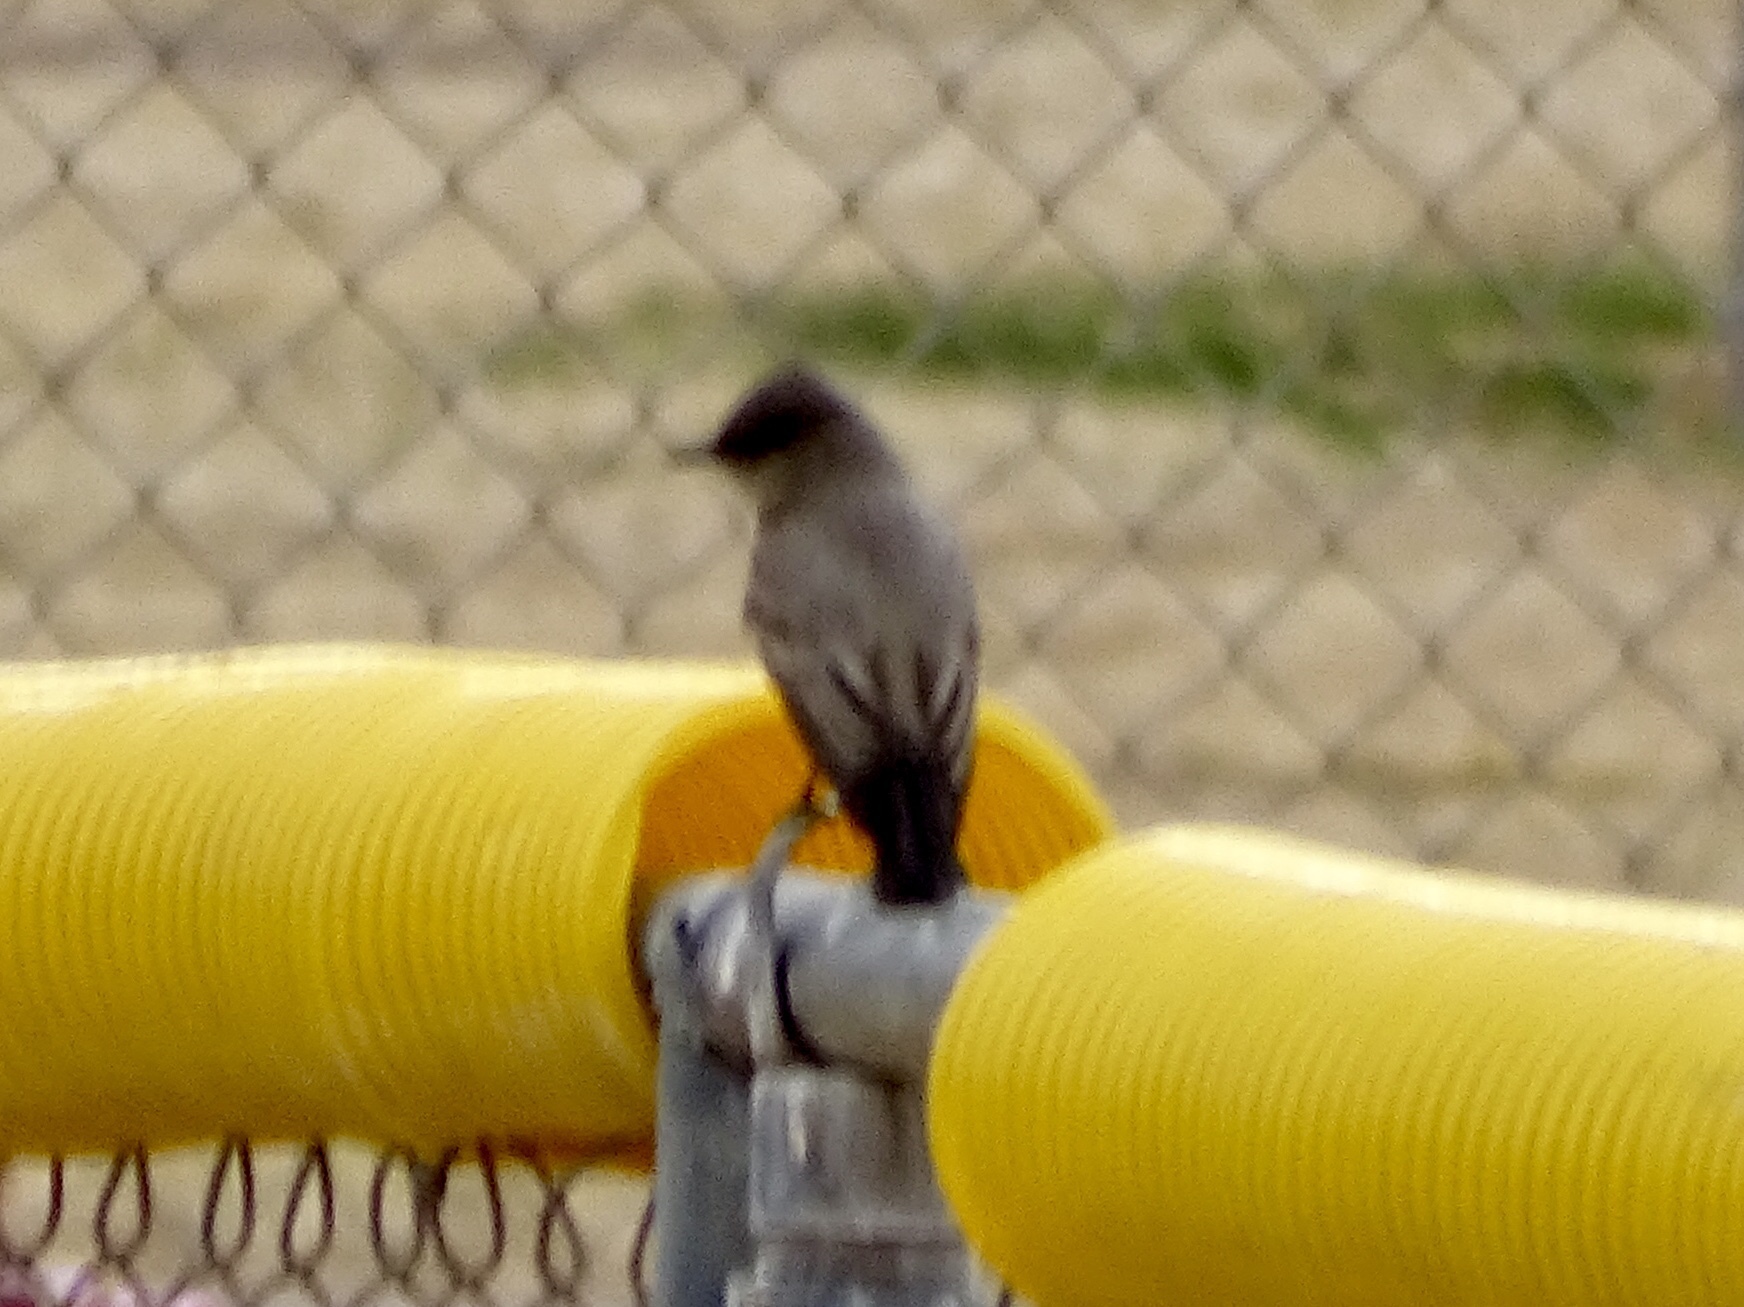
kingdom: Animalia
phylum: Chordata
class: Aves
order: Passeriformes
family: Tyrannidae
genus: Sayornis
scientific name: Sayornis saya
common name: Say's phoebe
